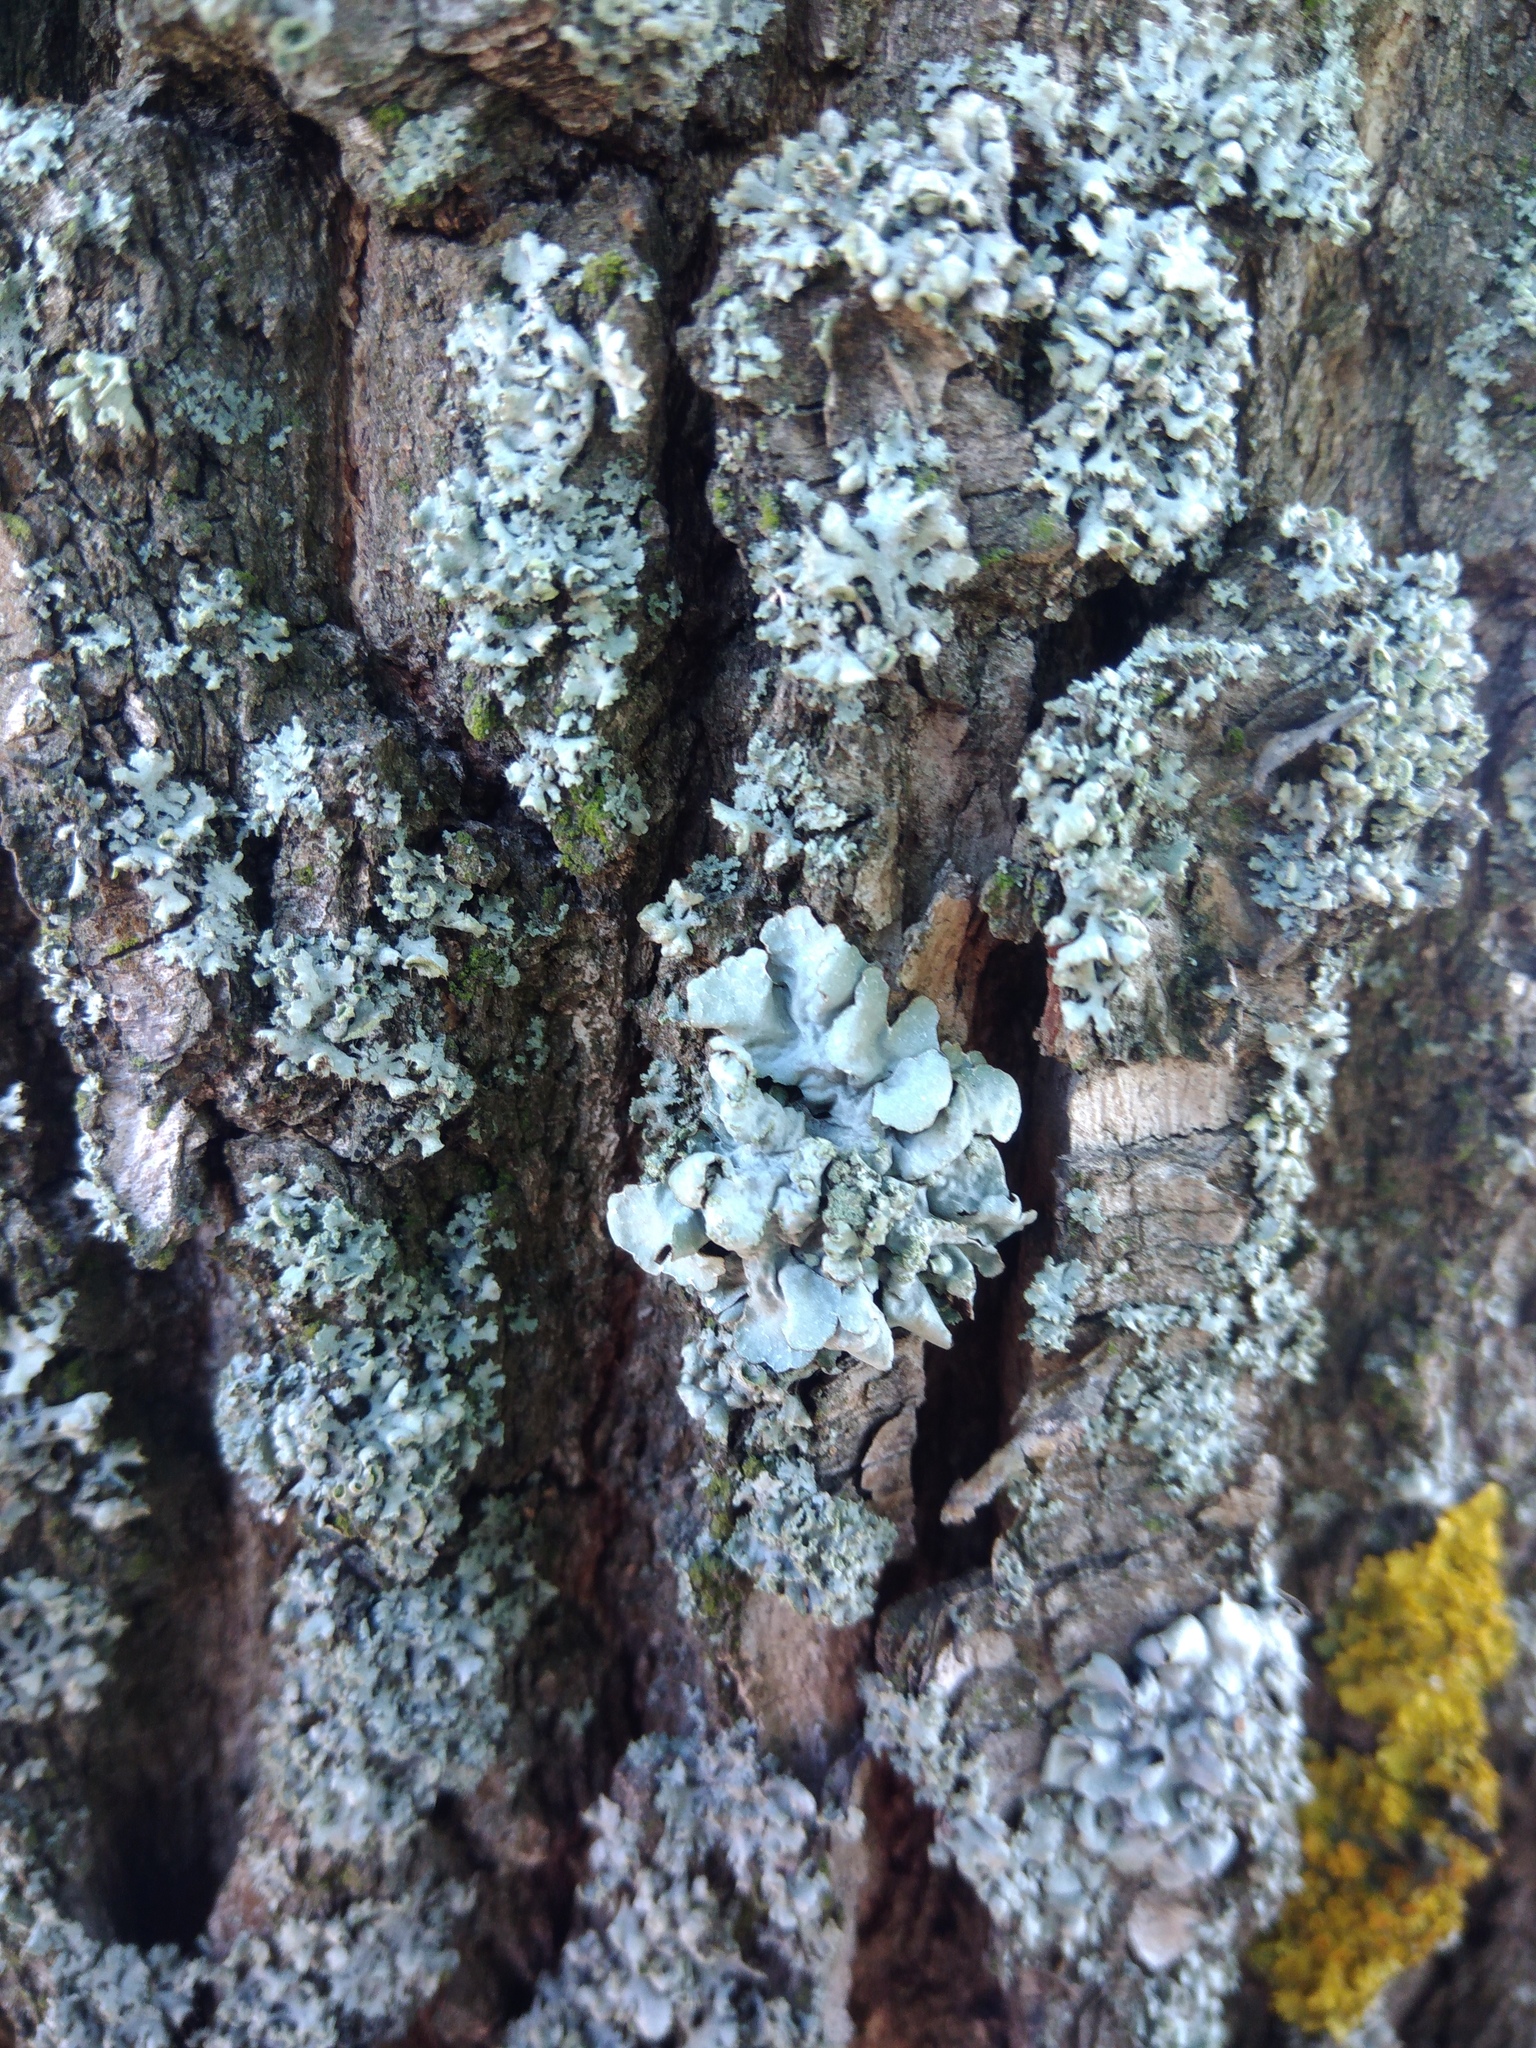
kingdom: Fungi
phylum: Ascomycota
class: Lecanoromycetes
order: Lecanorales
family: Parmeliaceae
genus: Parmelia
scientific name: Parmelia sulcata
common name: Netted shield lichen
